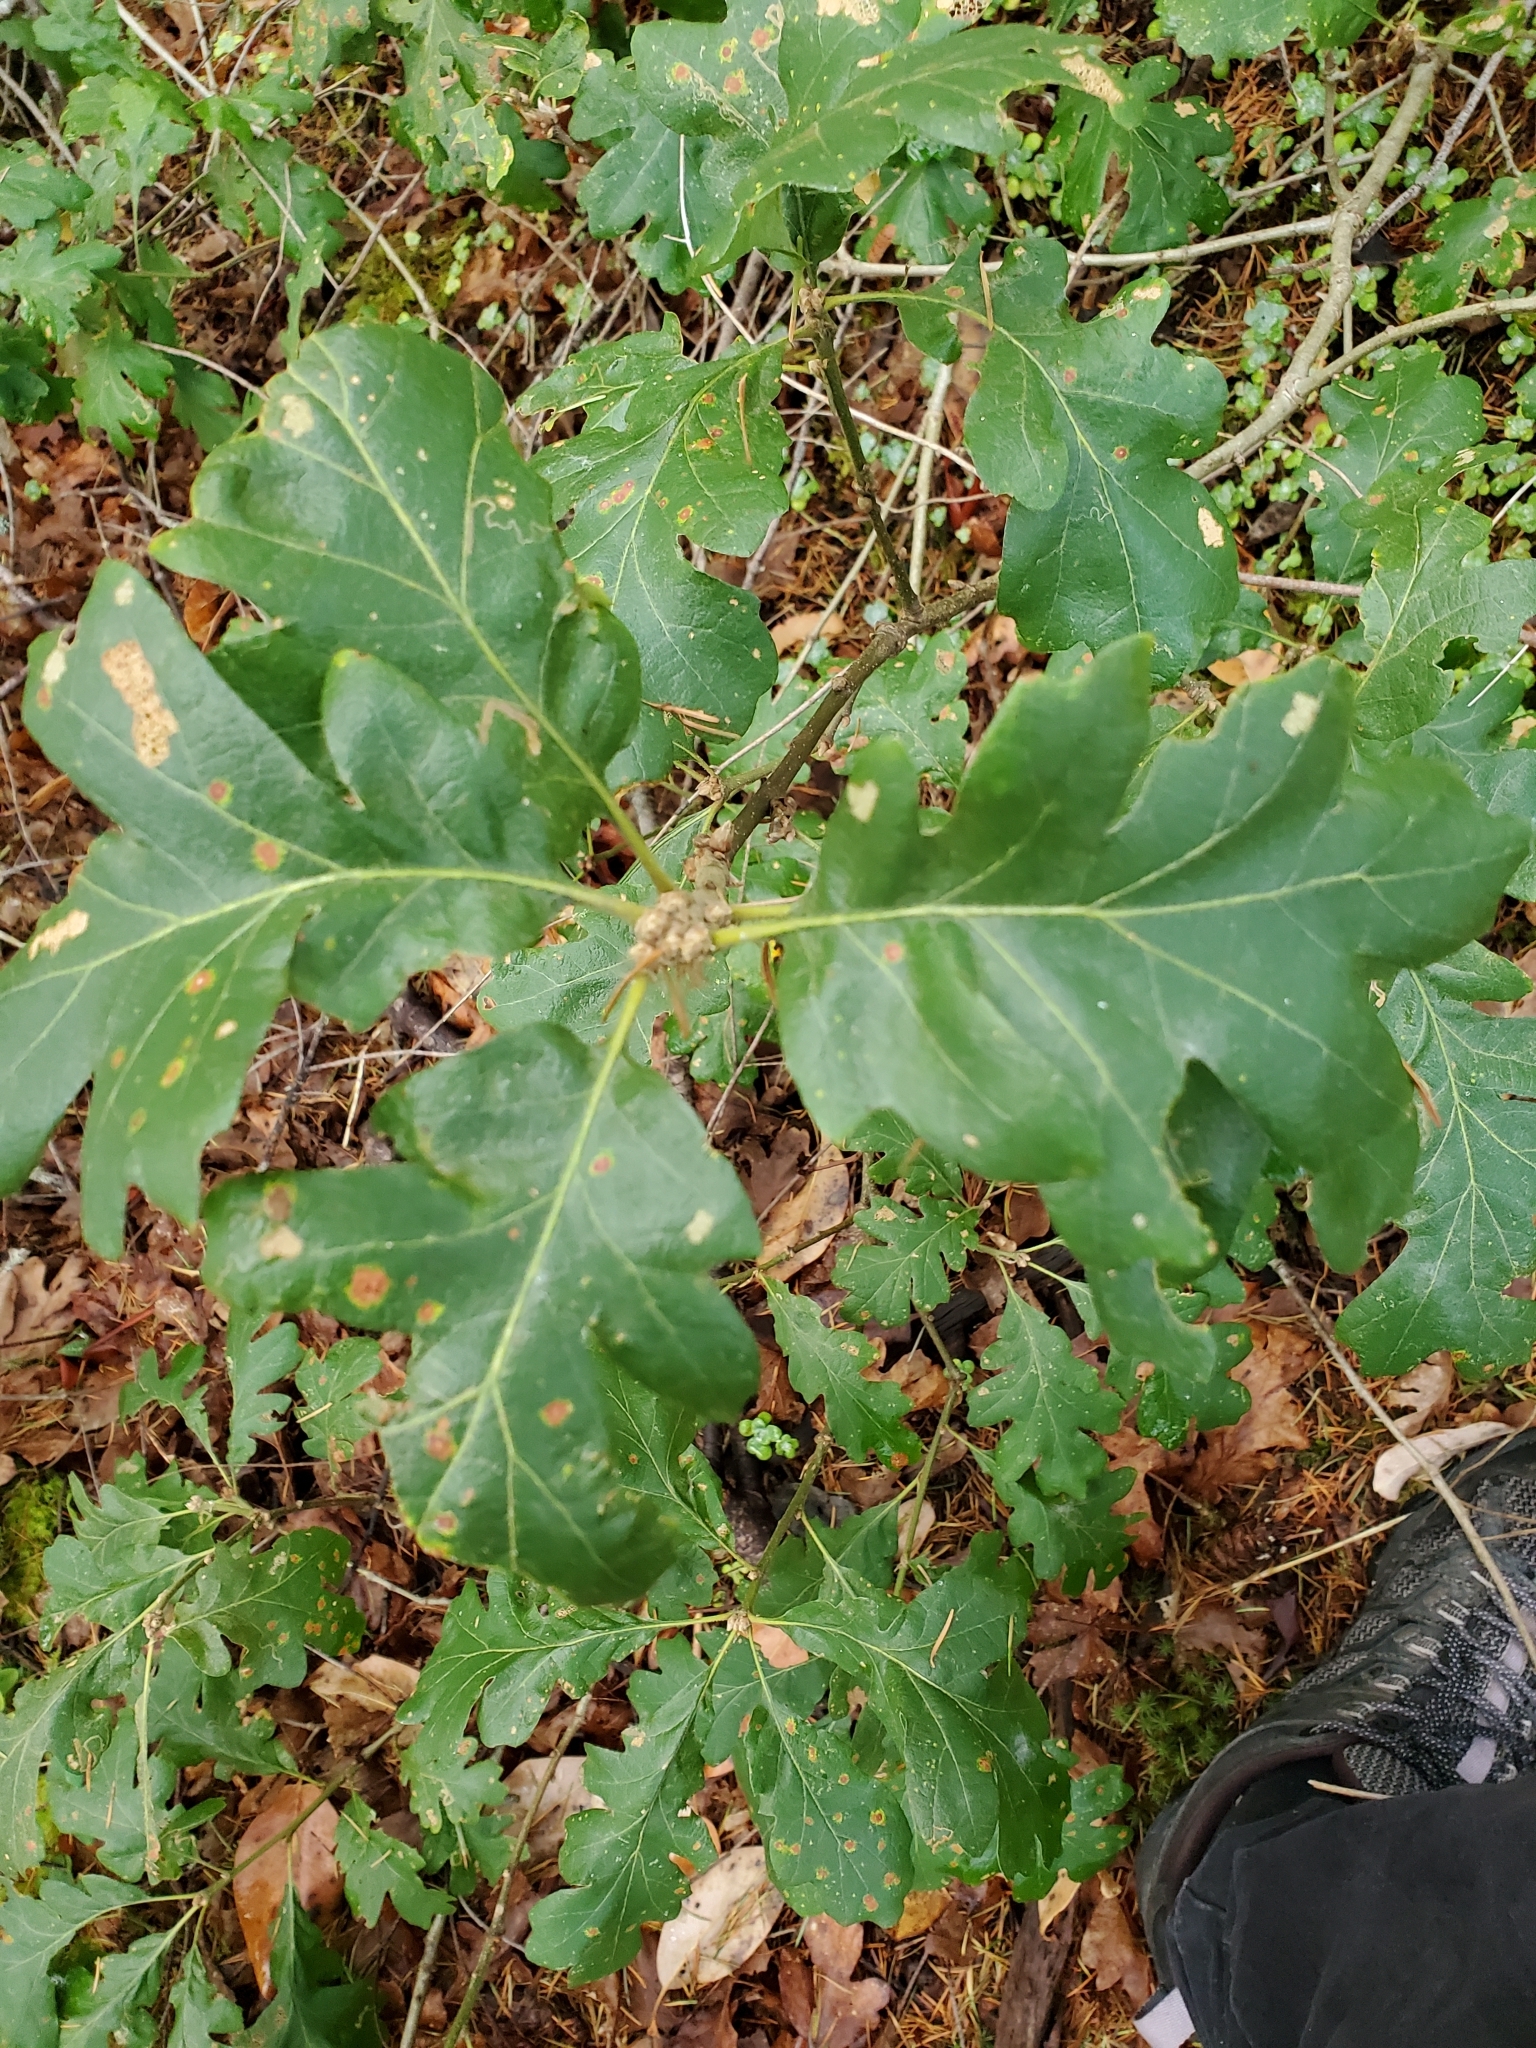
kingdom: Plantae
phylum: Tracheophyta
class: Magnoliopsida
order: Fagales
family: Fagaceae
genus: Quercus
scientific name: Quercus garryana
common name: Garry oak
